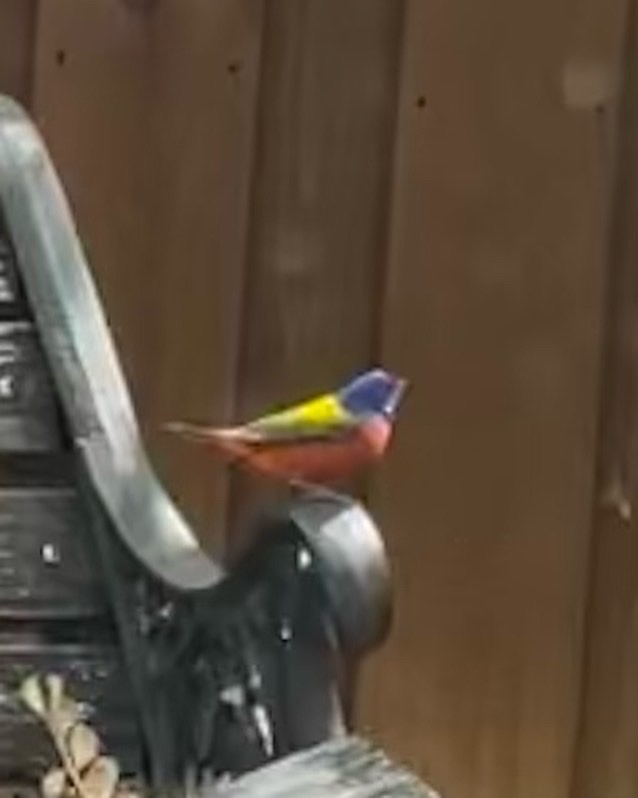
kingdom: Animalia
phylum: Chordata
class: Aves
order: Passeriformes
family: Cardinalidae
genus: Passerina
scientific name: Passerina ciris
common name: Painted bunting
